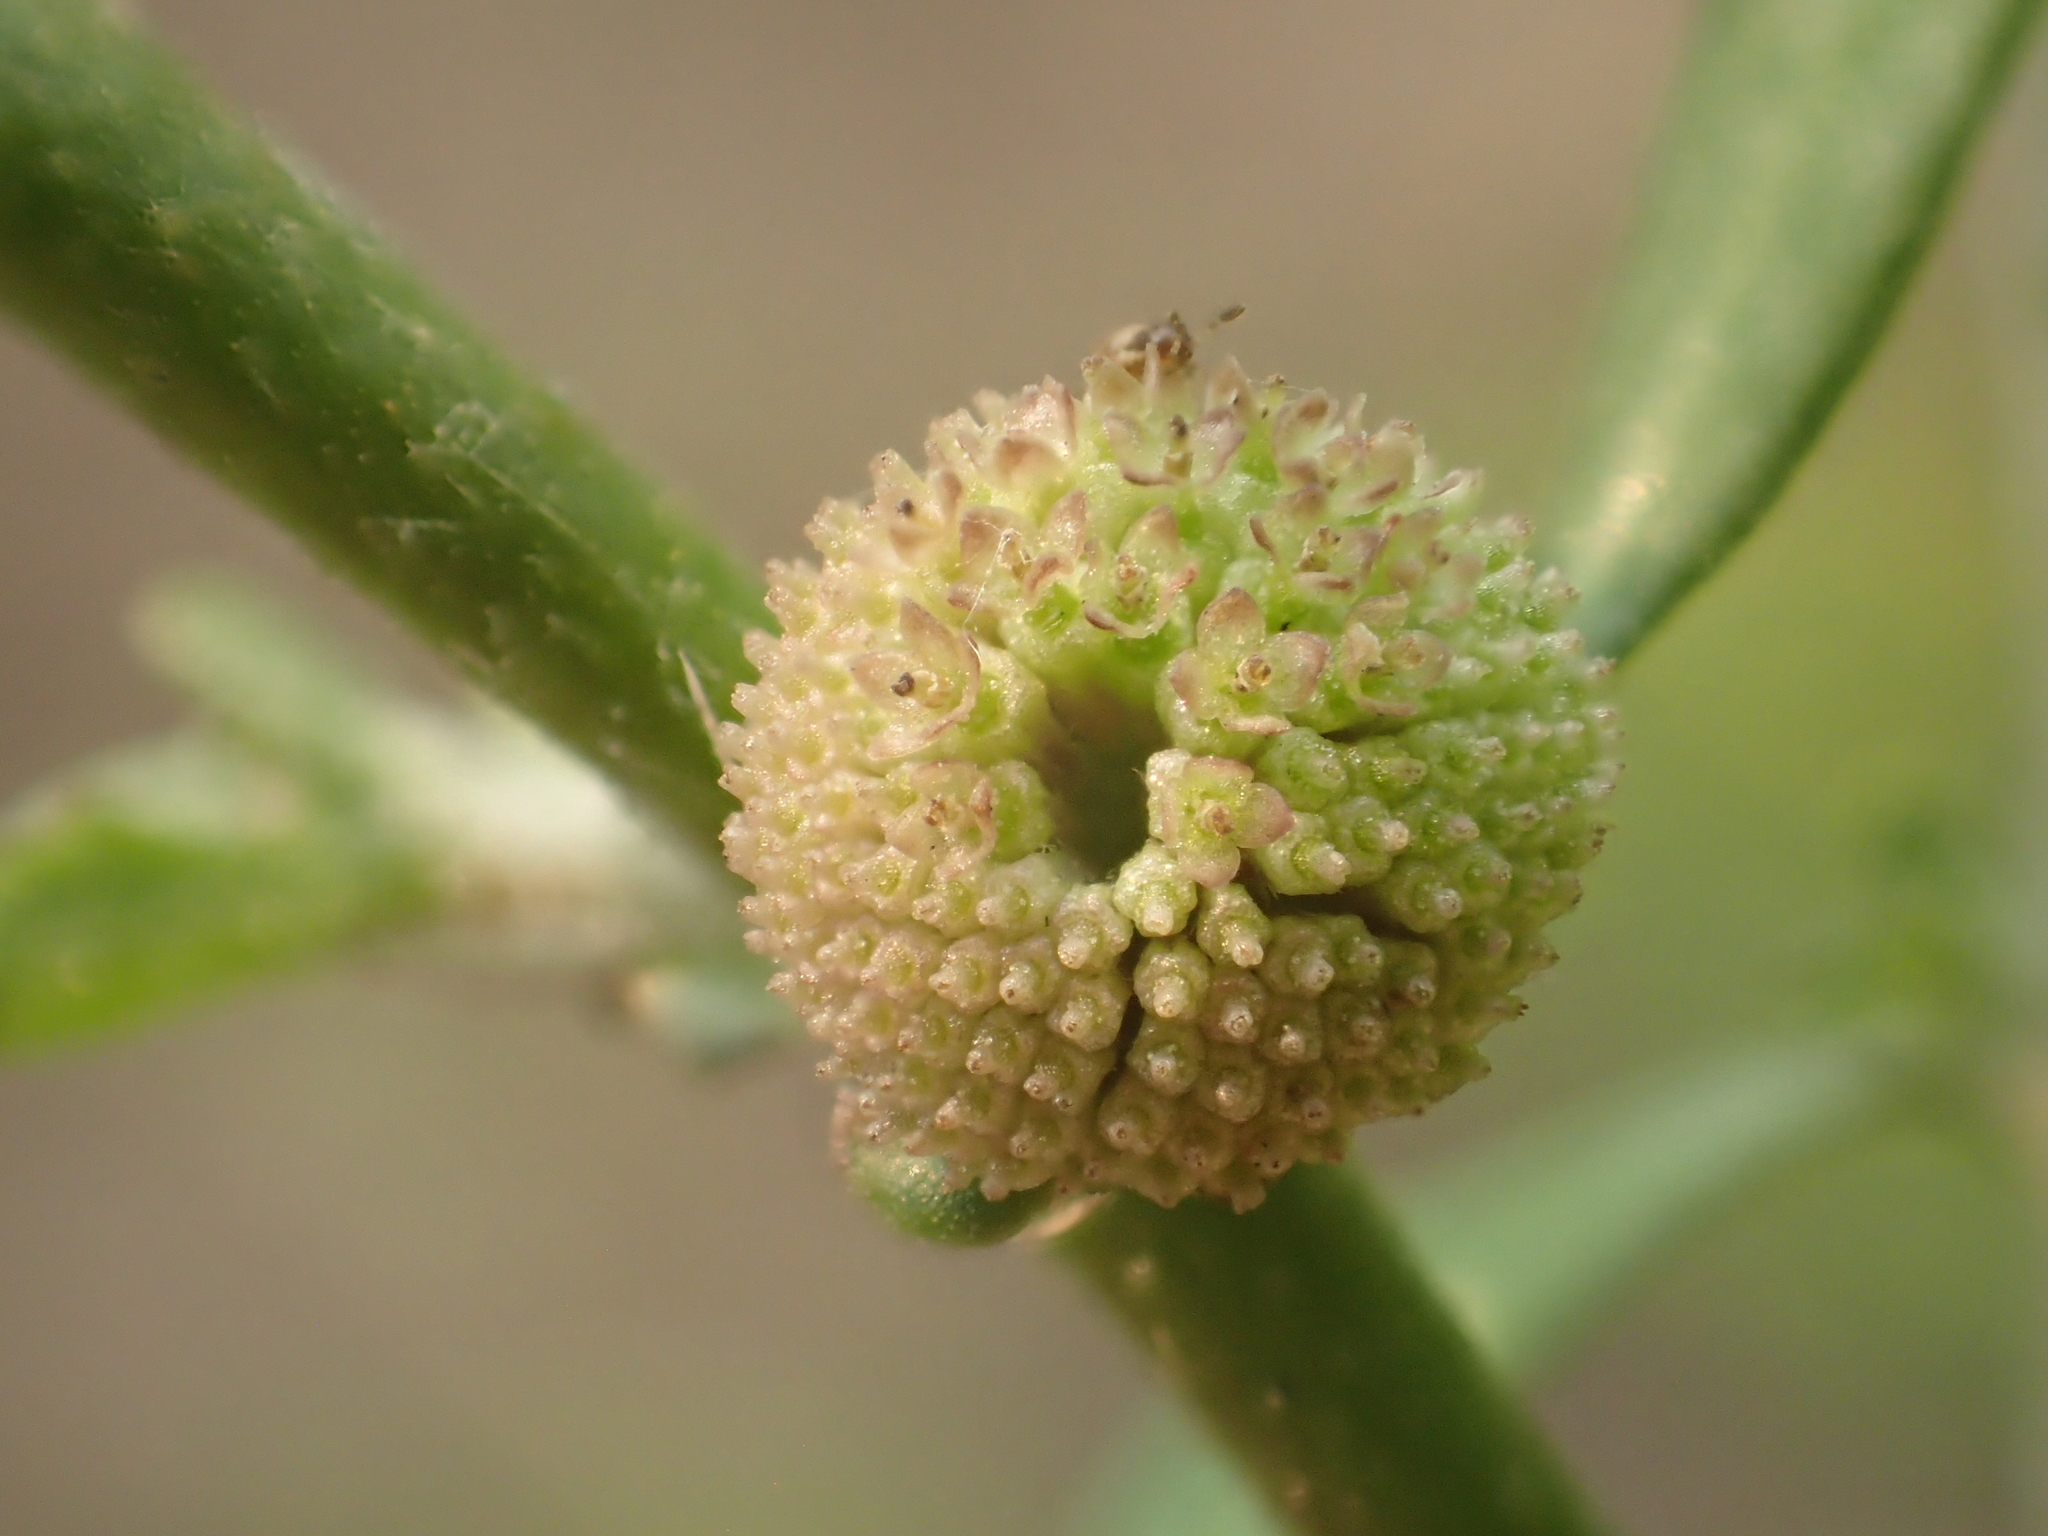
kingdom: Plantae
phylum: Tracheophyta
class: Magnoliopsida
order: Asterales
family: Asteraceae
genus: Centipeda
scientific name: Centipeda minima
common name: Spreading sneezeweed
